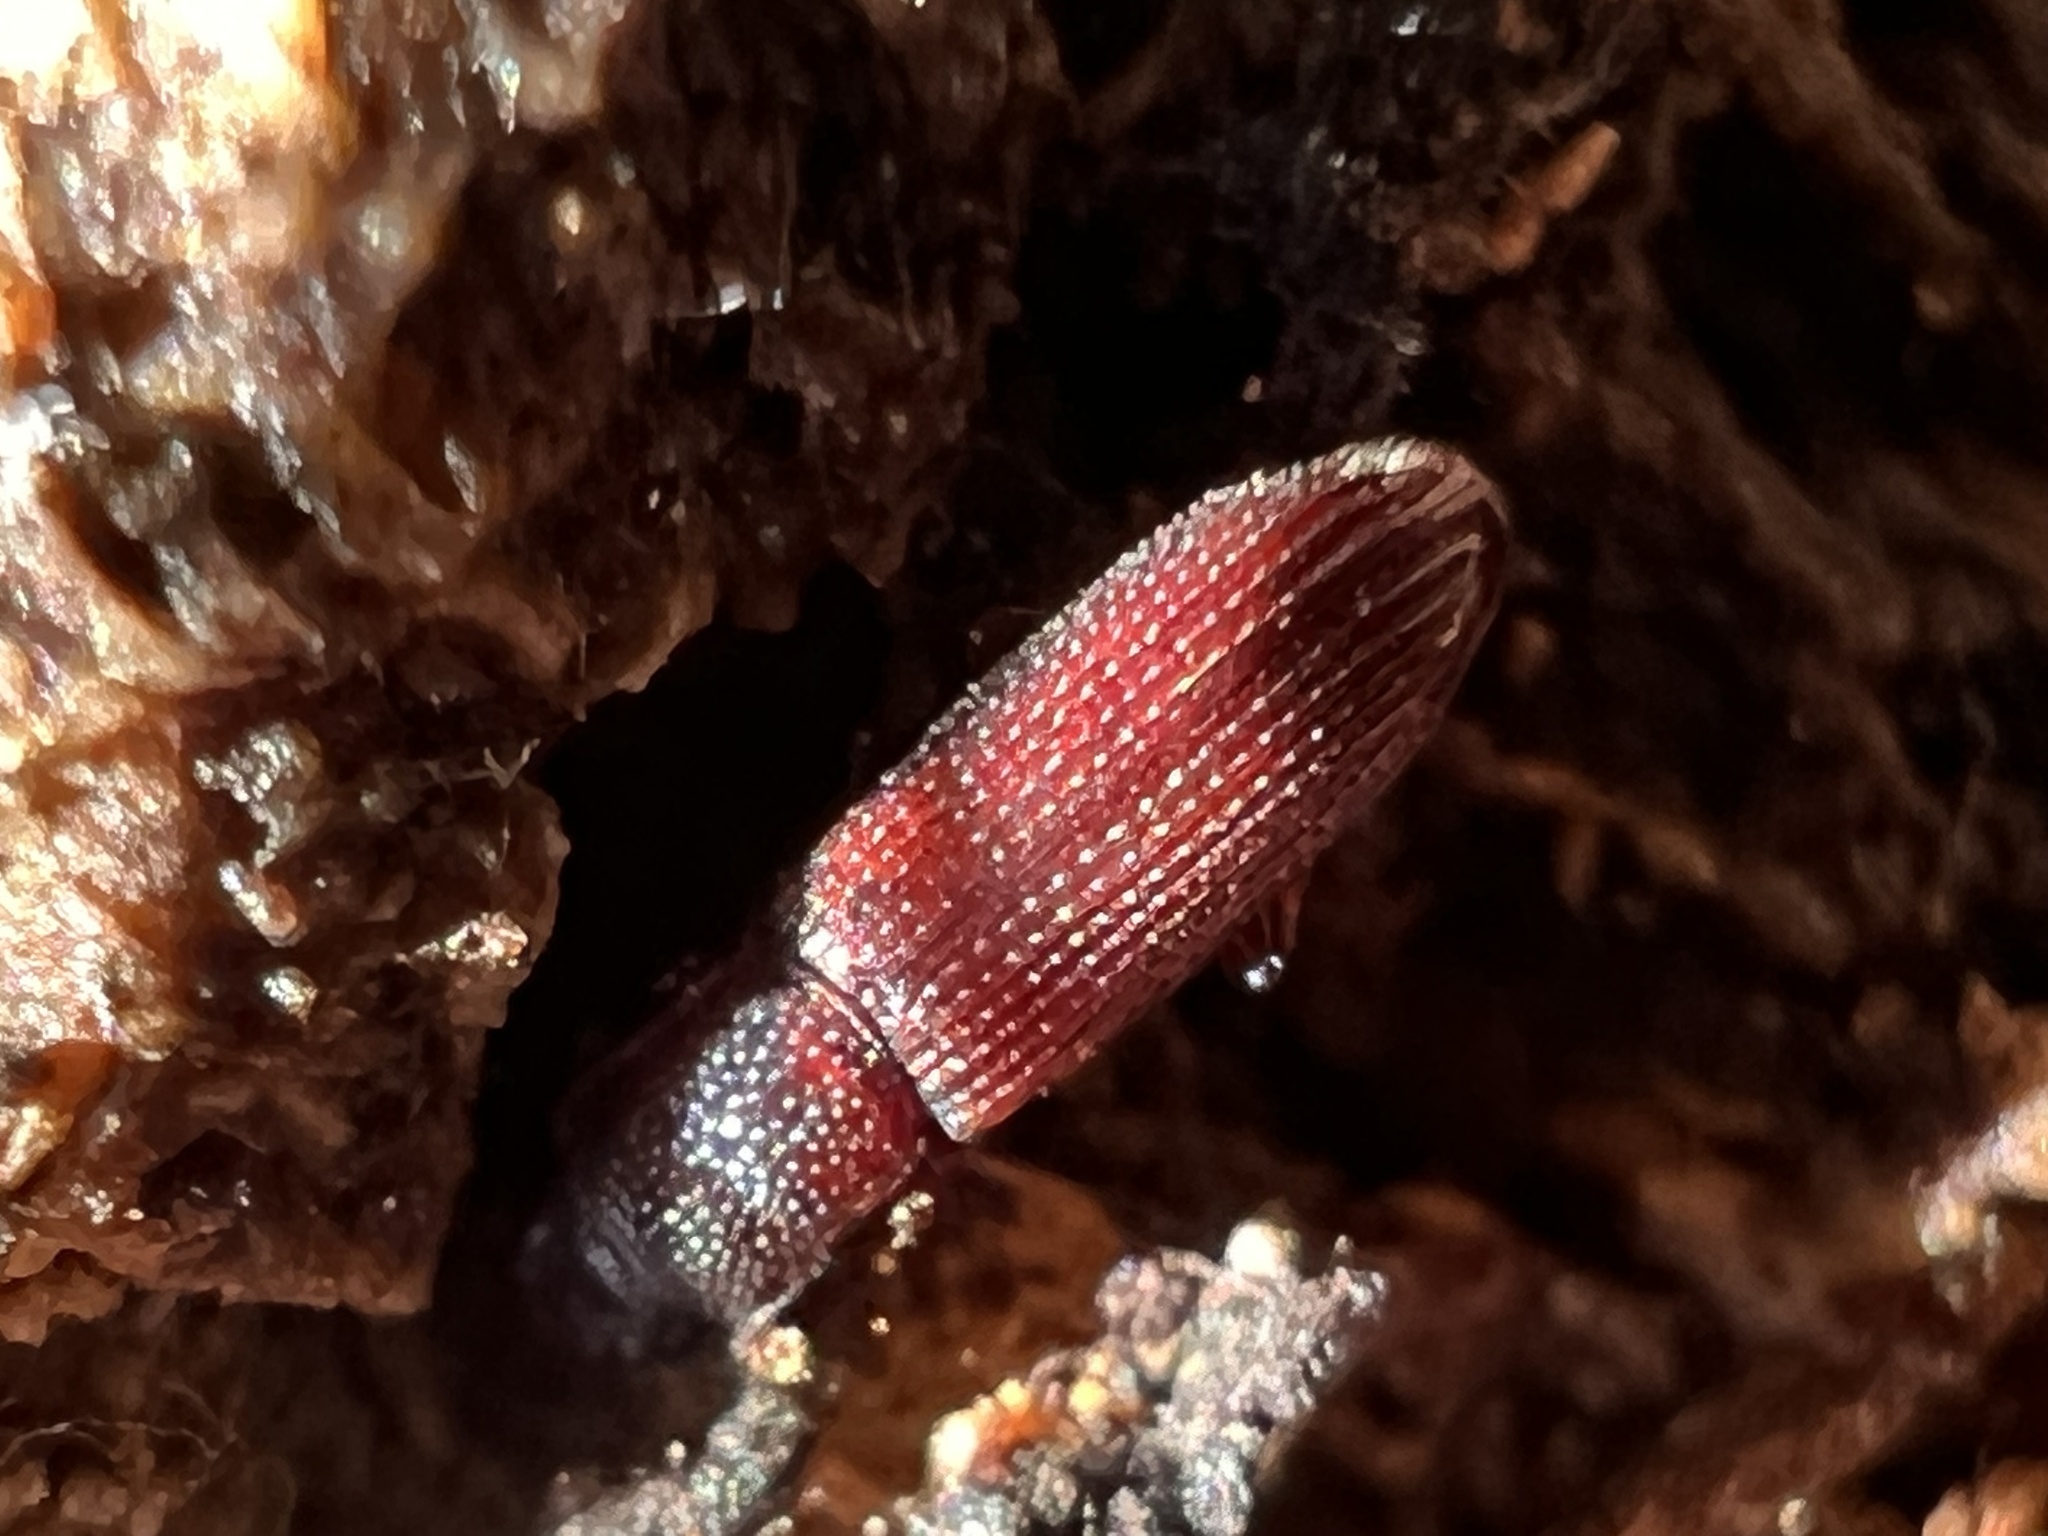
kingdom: Animalia
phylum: Arthropoda
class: Insecta
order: Coleoptera
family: Zopheridae
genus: Pycnomerus
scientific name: Pycnomerus reflexus
